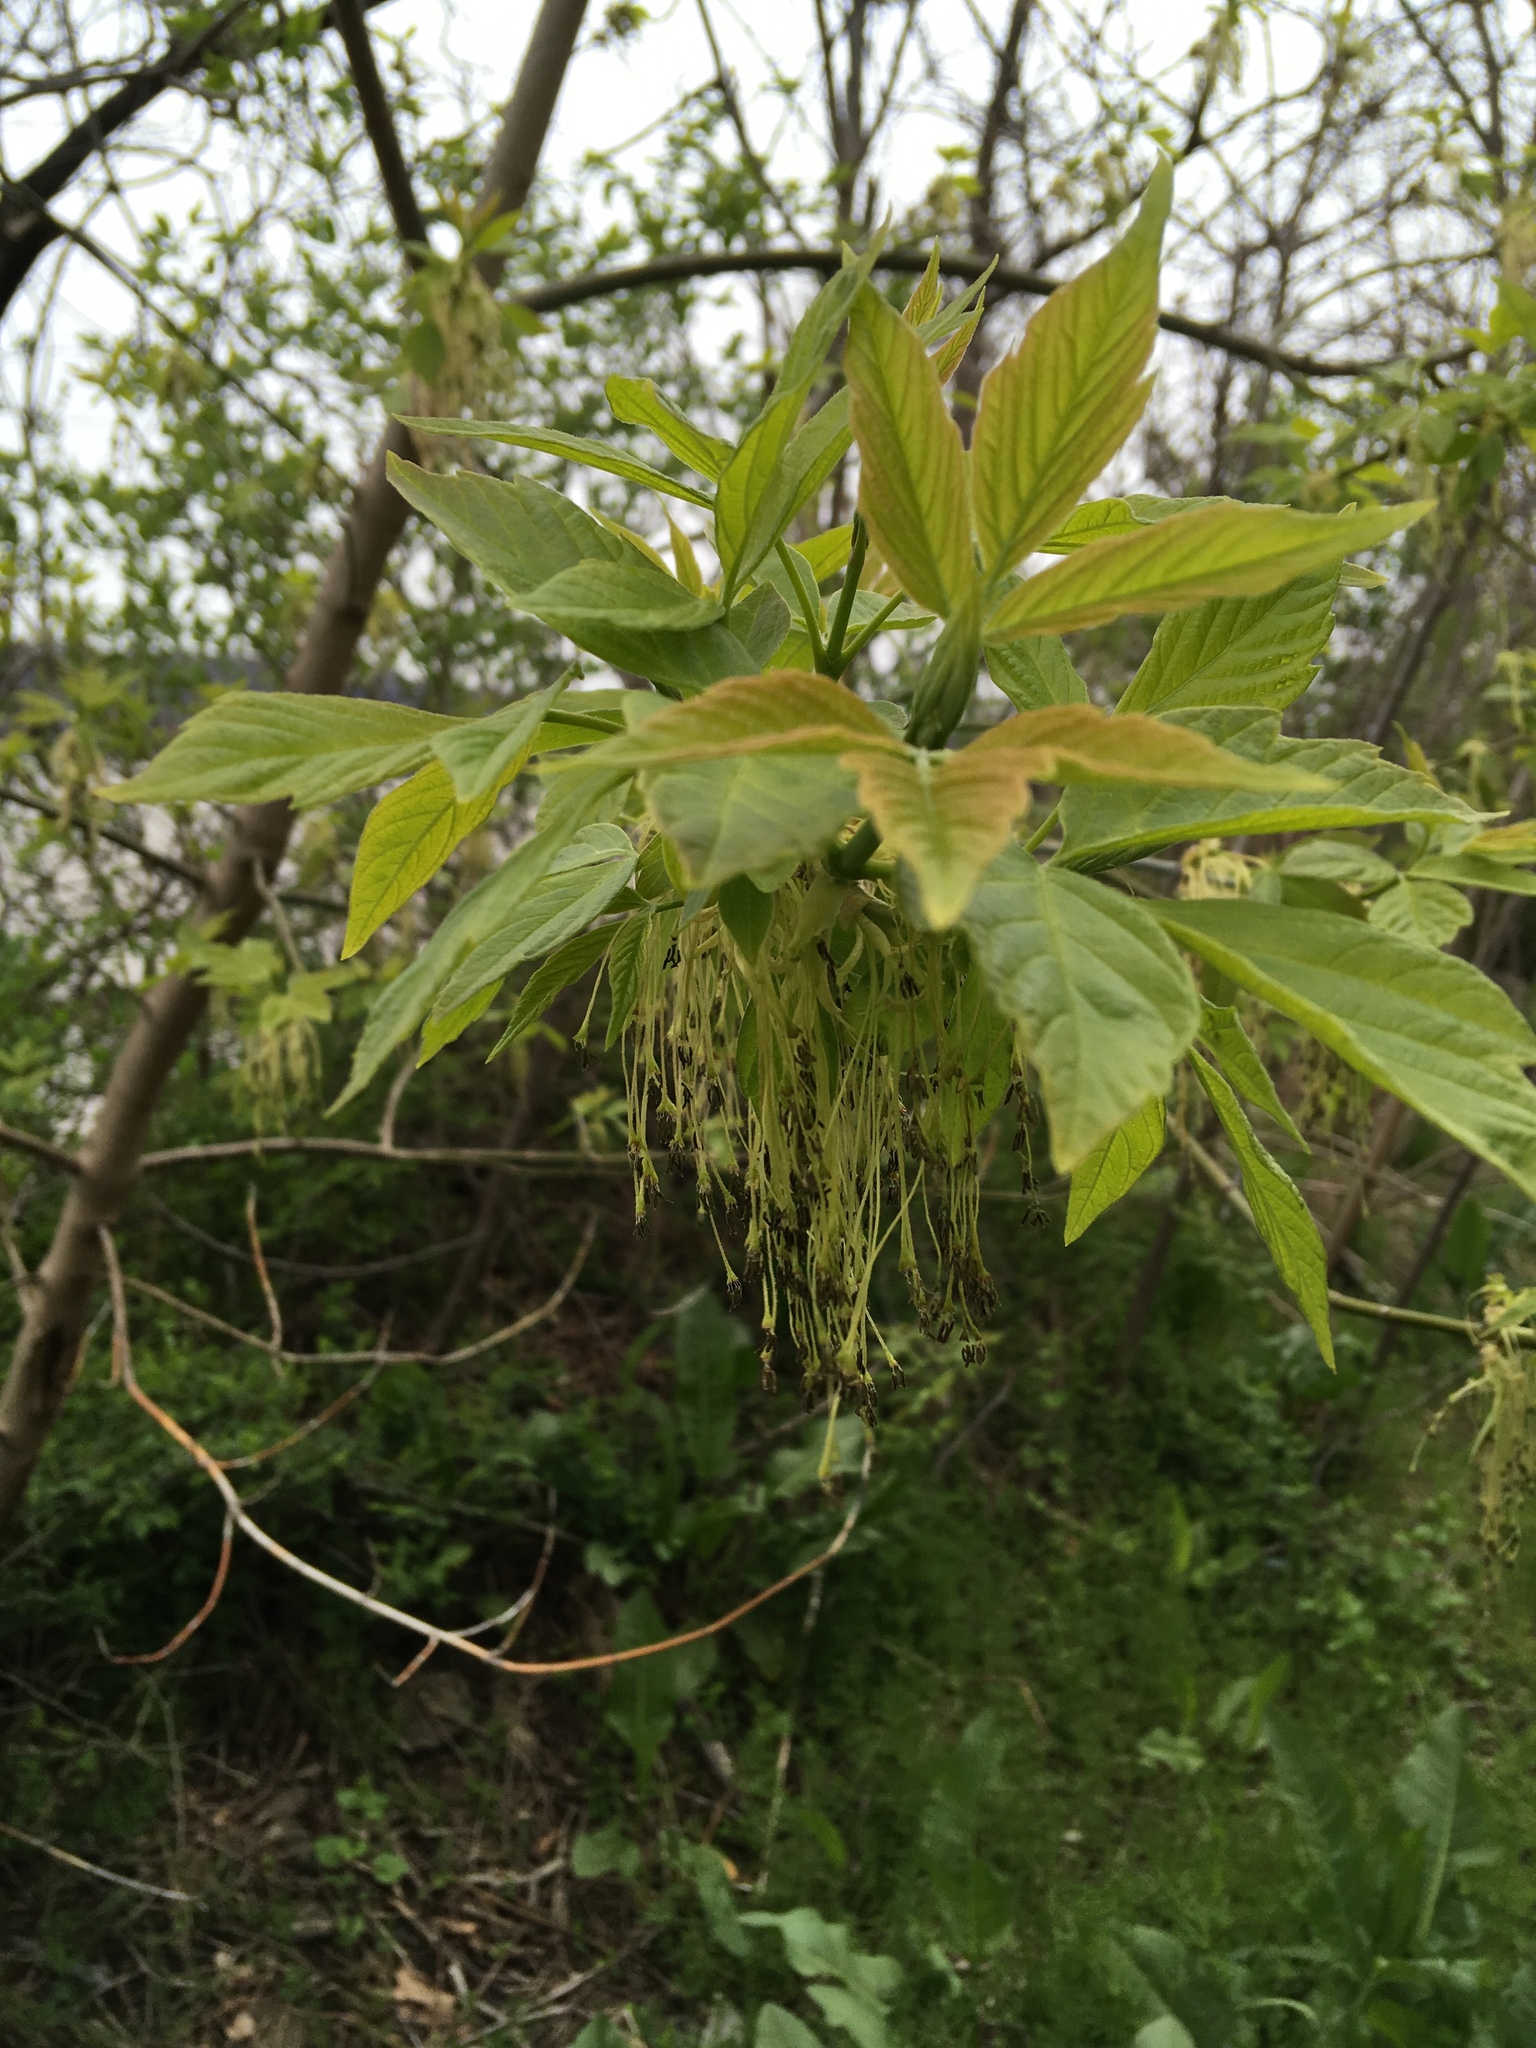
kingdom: Plantae
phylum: Tracheophyta
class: Magnoliopsida
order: Sapindales
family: Sapindaceae
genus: Acer
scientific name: Acer negundo
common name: Ashleaf maple
